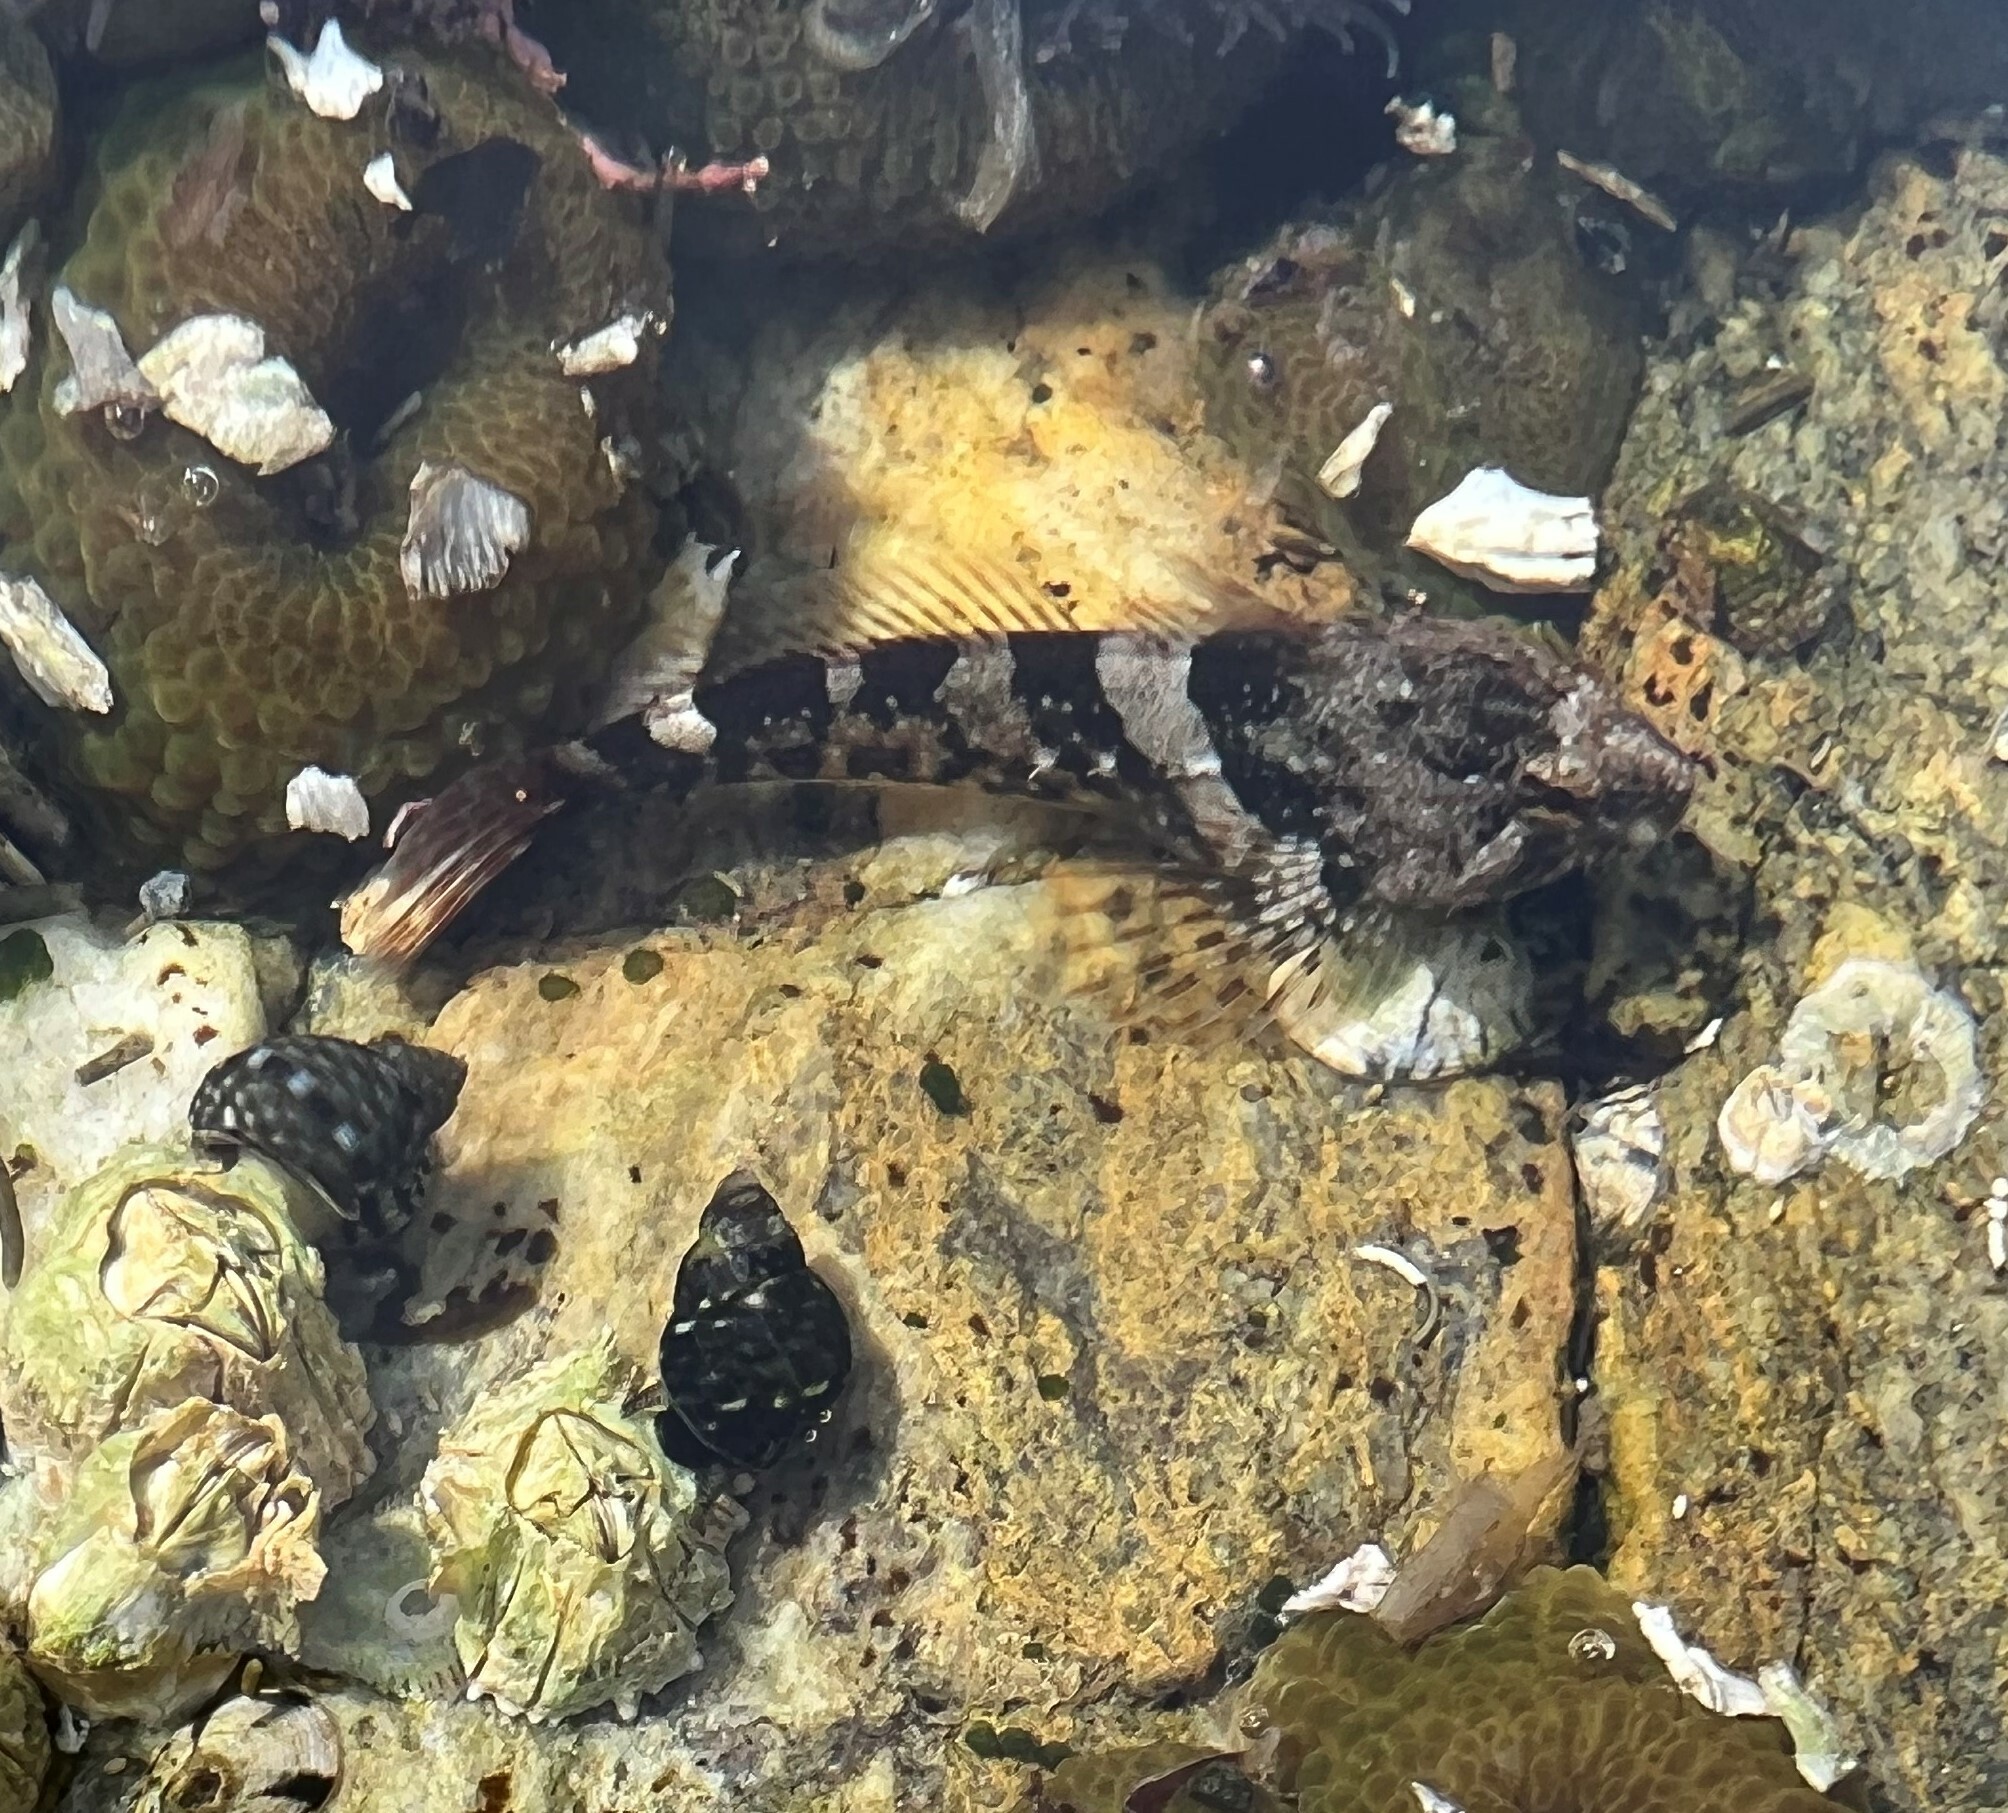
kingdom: Animalia
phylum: Chordata
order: Scorpaeniformes
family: Cottidae
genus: Oligocottus
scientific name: Oligocottus maculosus
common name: Tidepool sculpin
